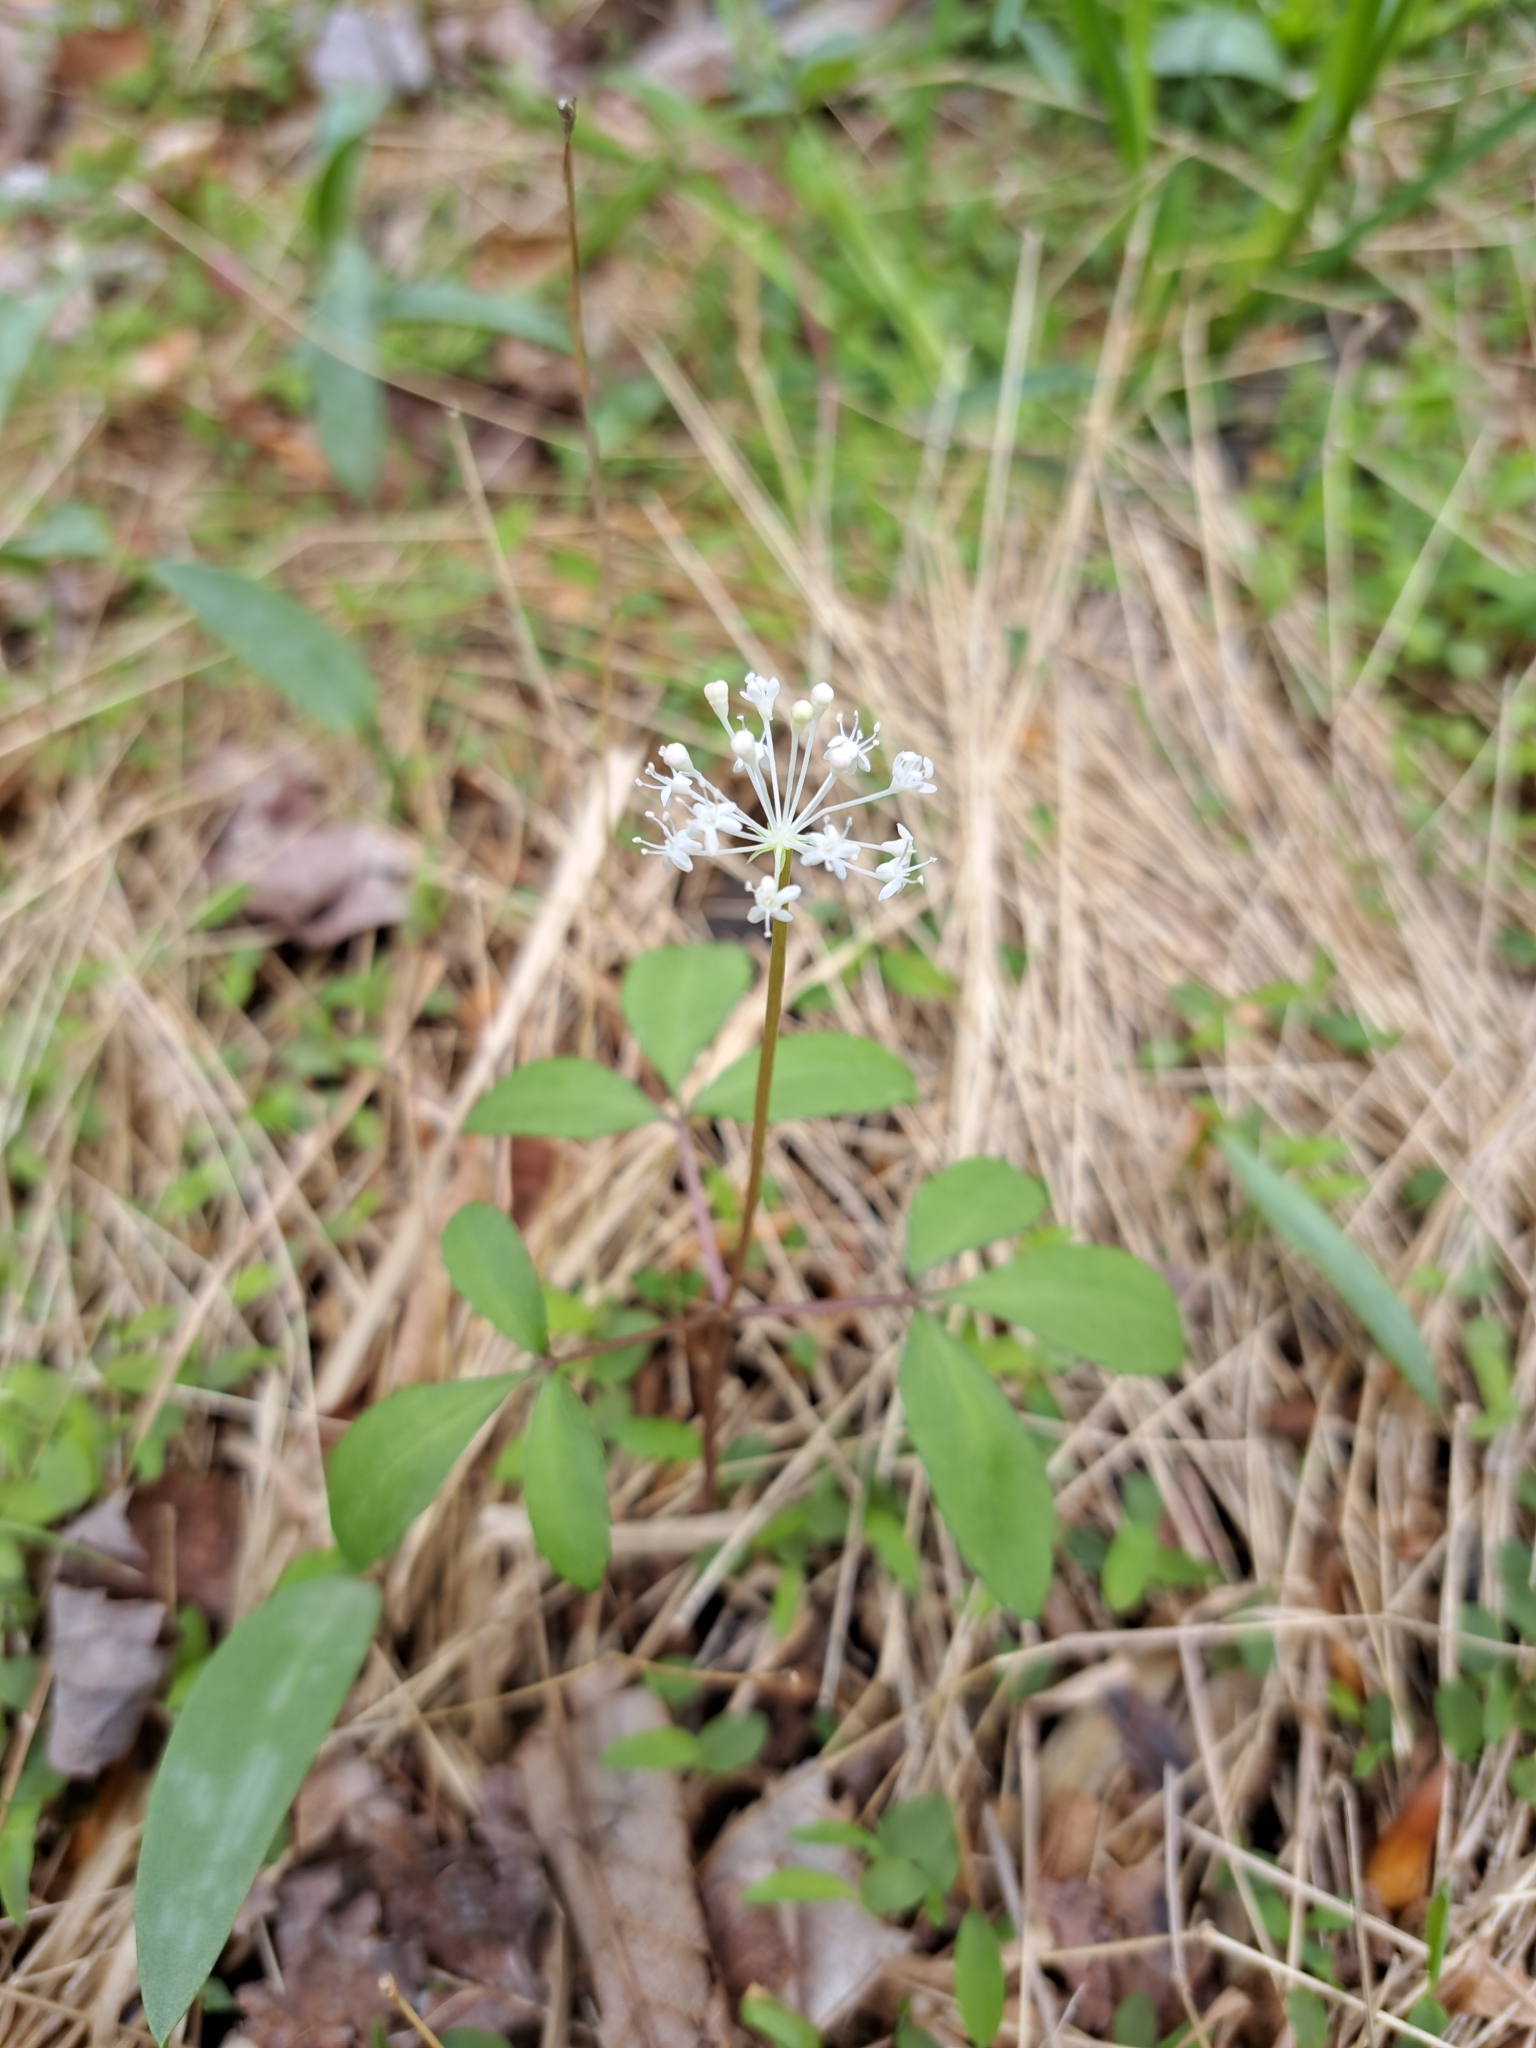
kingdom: Plantae
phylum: Tracheophyta
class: Magnoliopsida
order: Apiales
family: Araliaceae
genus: Panax
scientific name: Panax trifolius
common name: Dwarf ginseng
